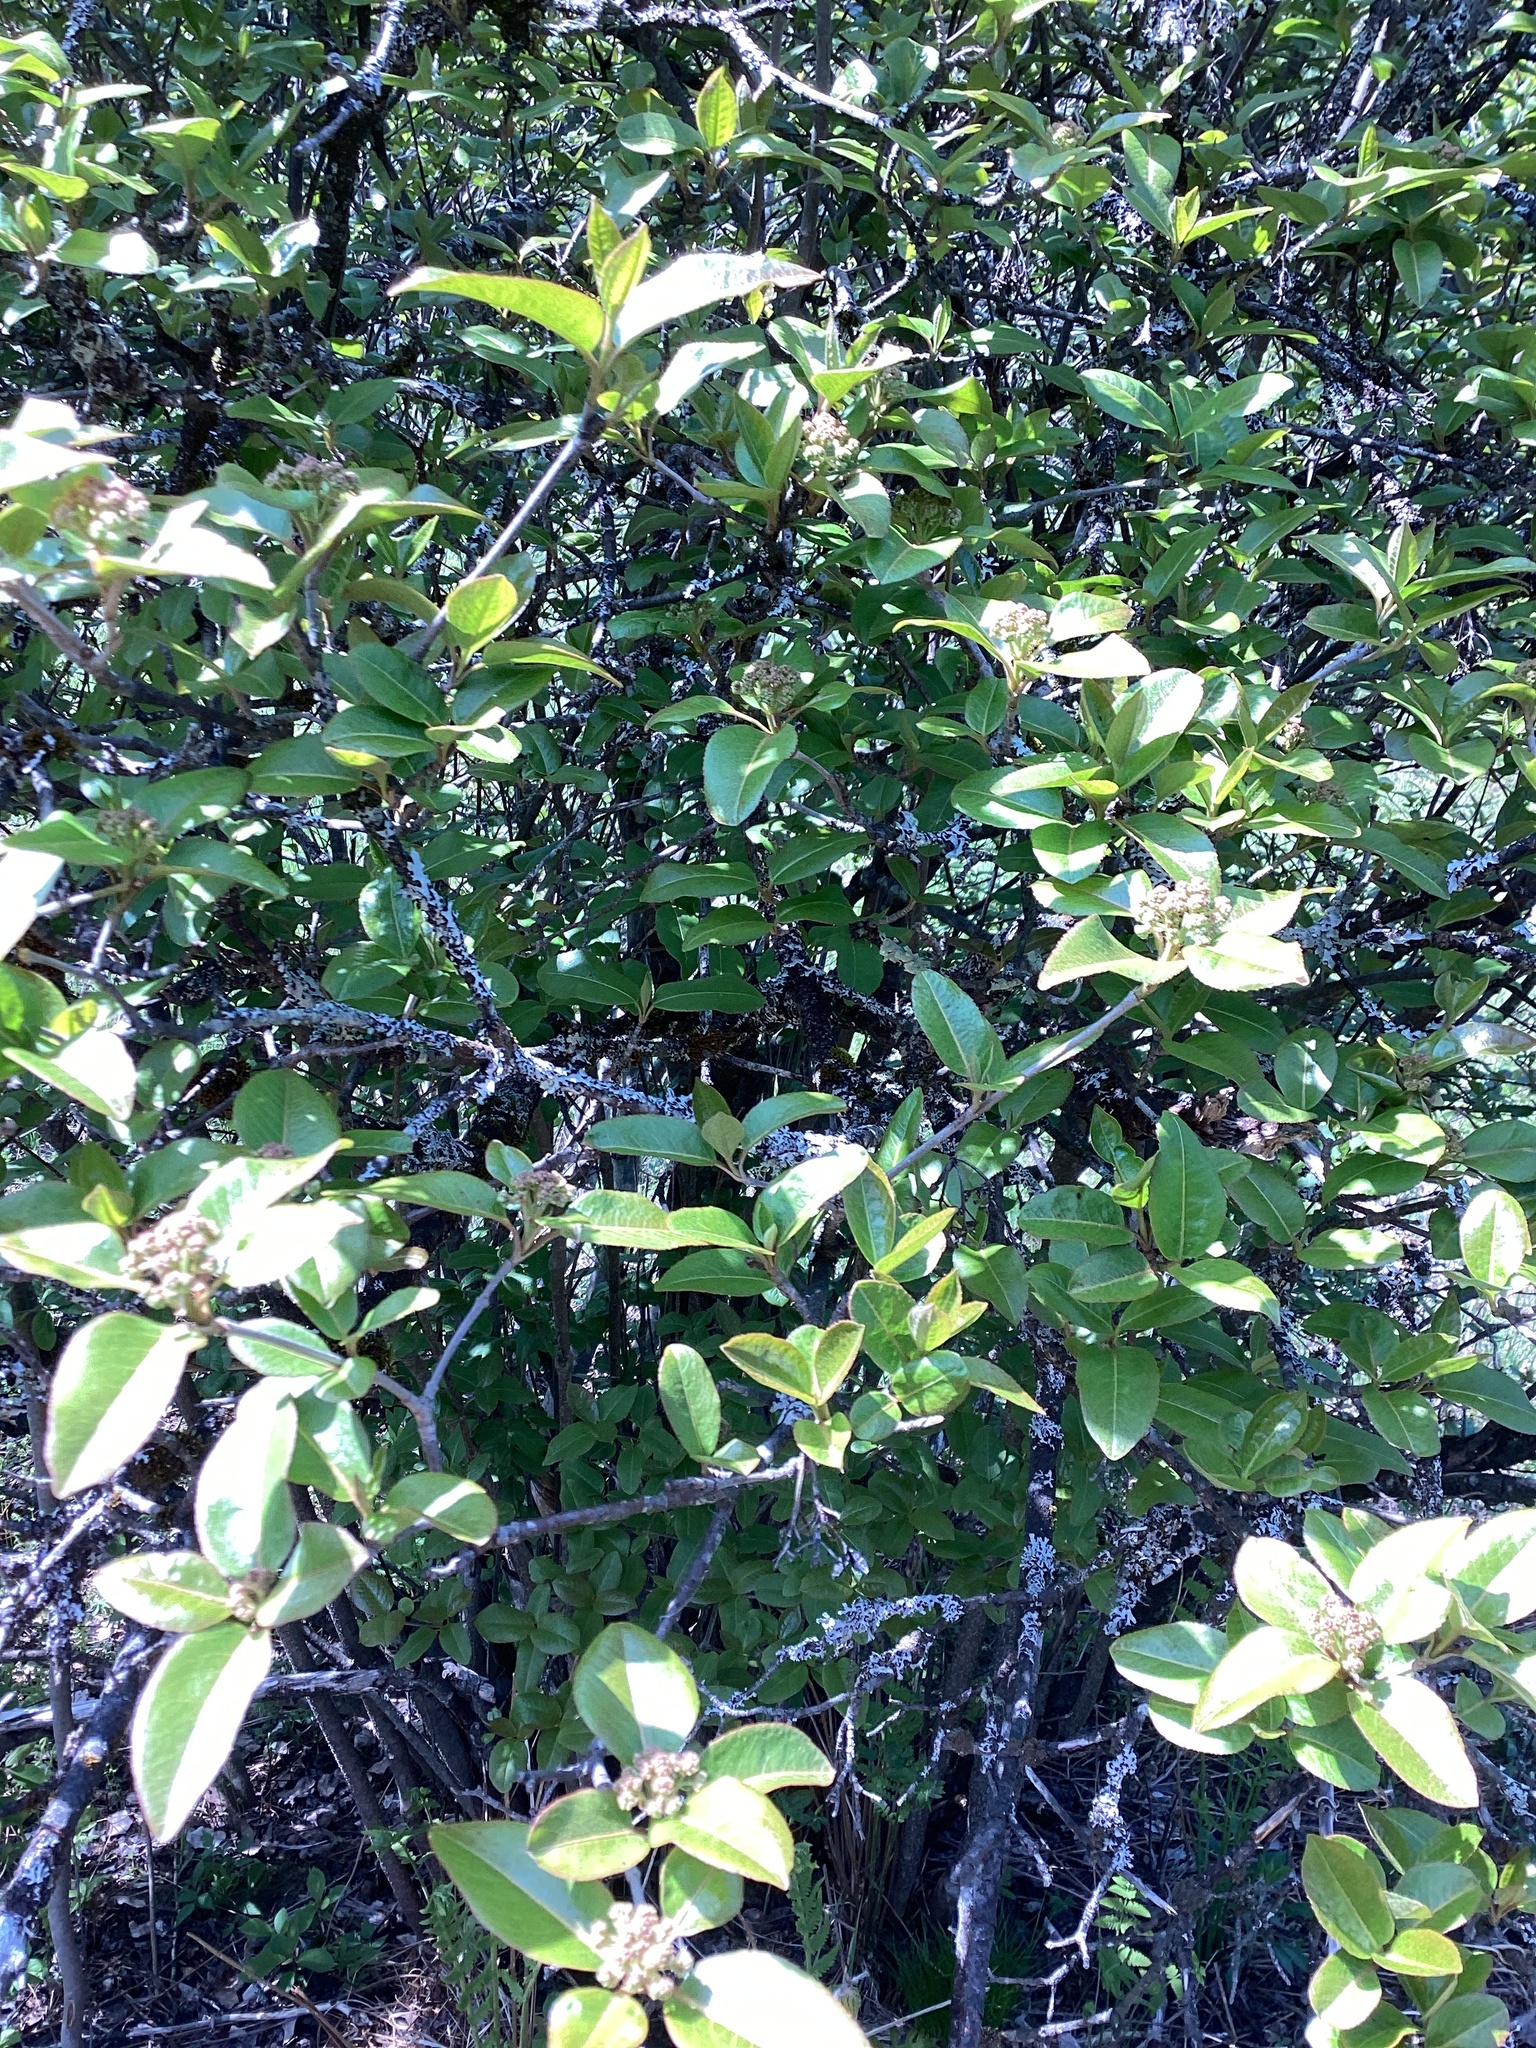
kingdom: Plantae
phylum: Tracheophyta
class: Magnoliopsida
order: Dipsacales
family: Viburnaceae
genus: Viburnum
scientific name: Viburnum cassinoides
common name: Swamp haw
